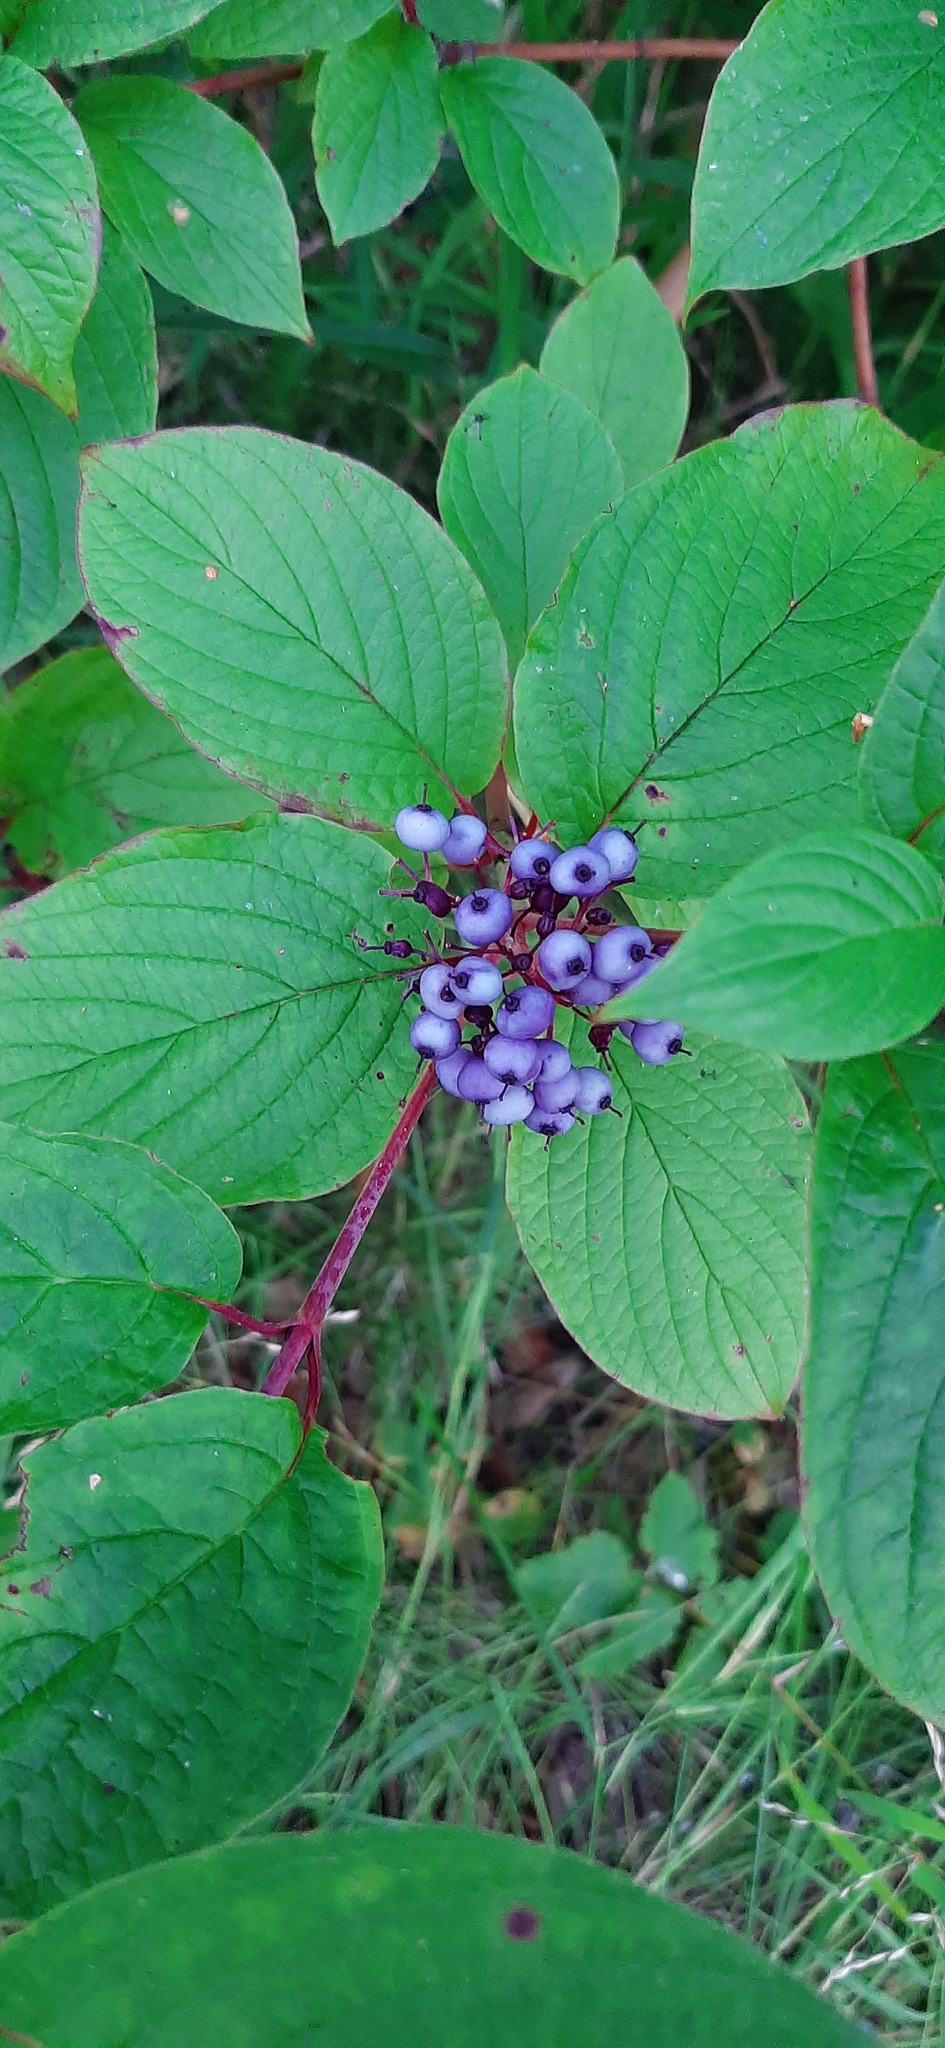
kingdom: Plantae
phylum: Tracheophyta
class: Magnoliopsida
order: Cornales
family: Cornaceae
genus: Cornus
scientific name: Cornus alba
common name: White dogwood
